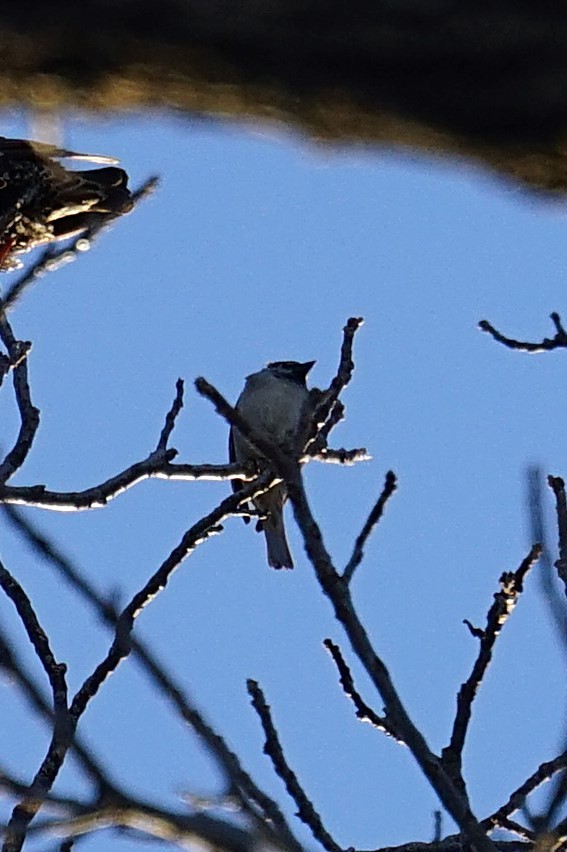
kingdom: Animalia
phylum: Chordata
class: Aves
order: Passeriformes
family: Passeridae
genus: Passer
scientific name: Passer domesticus
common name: House sparrow
